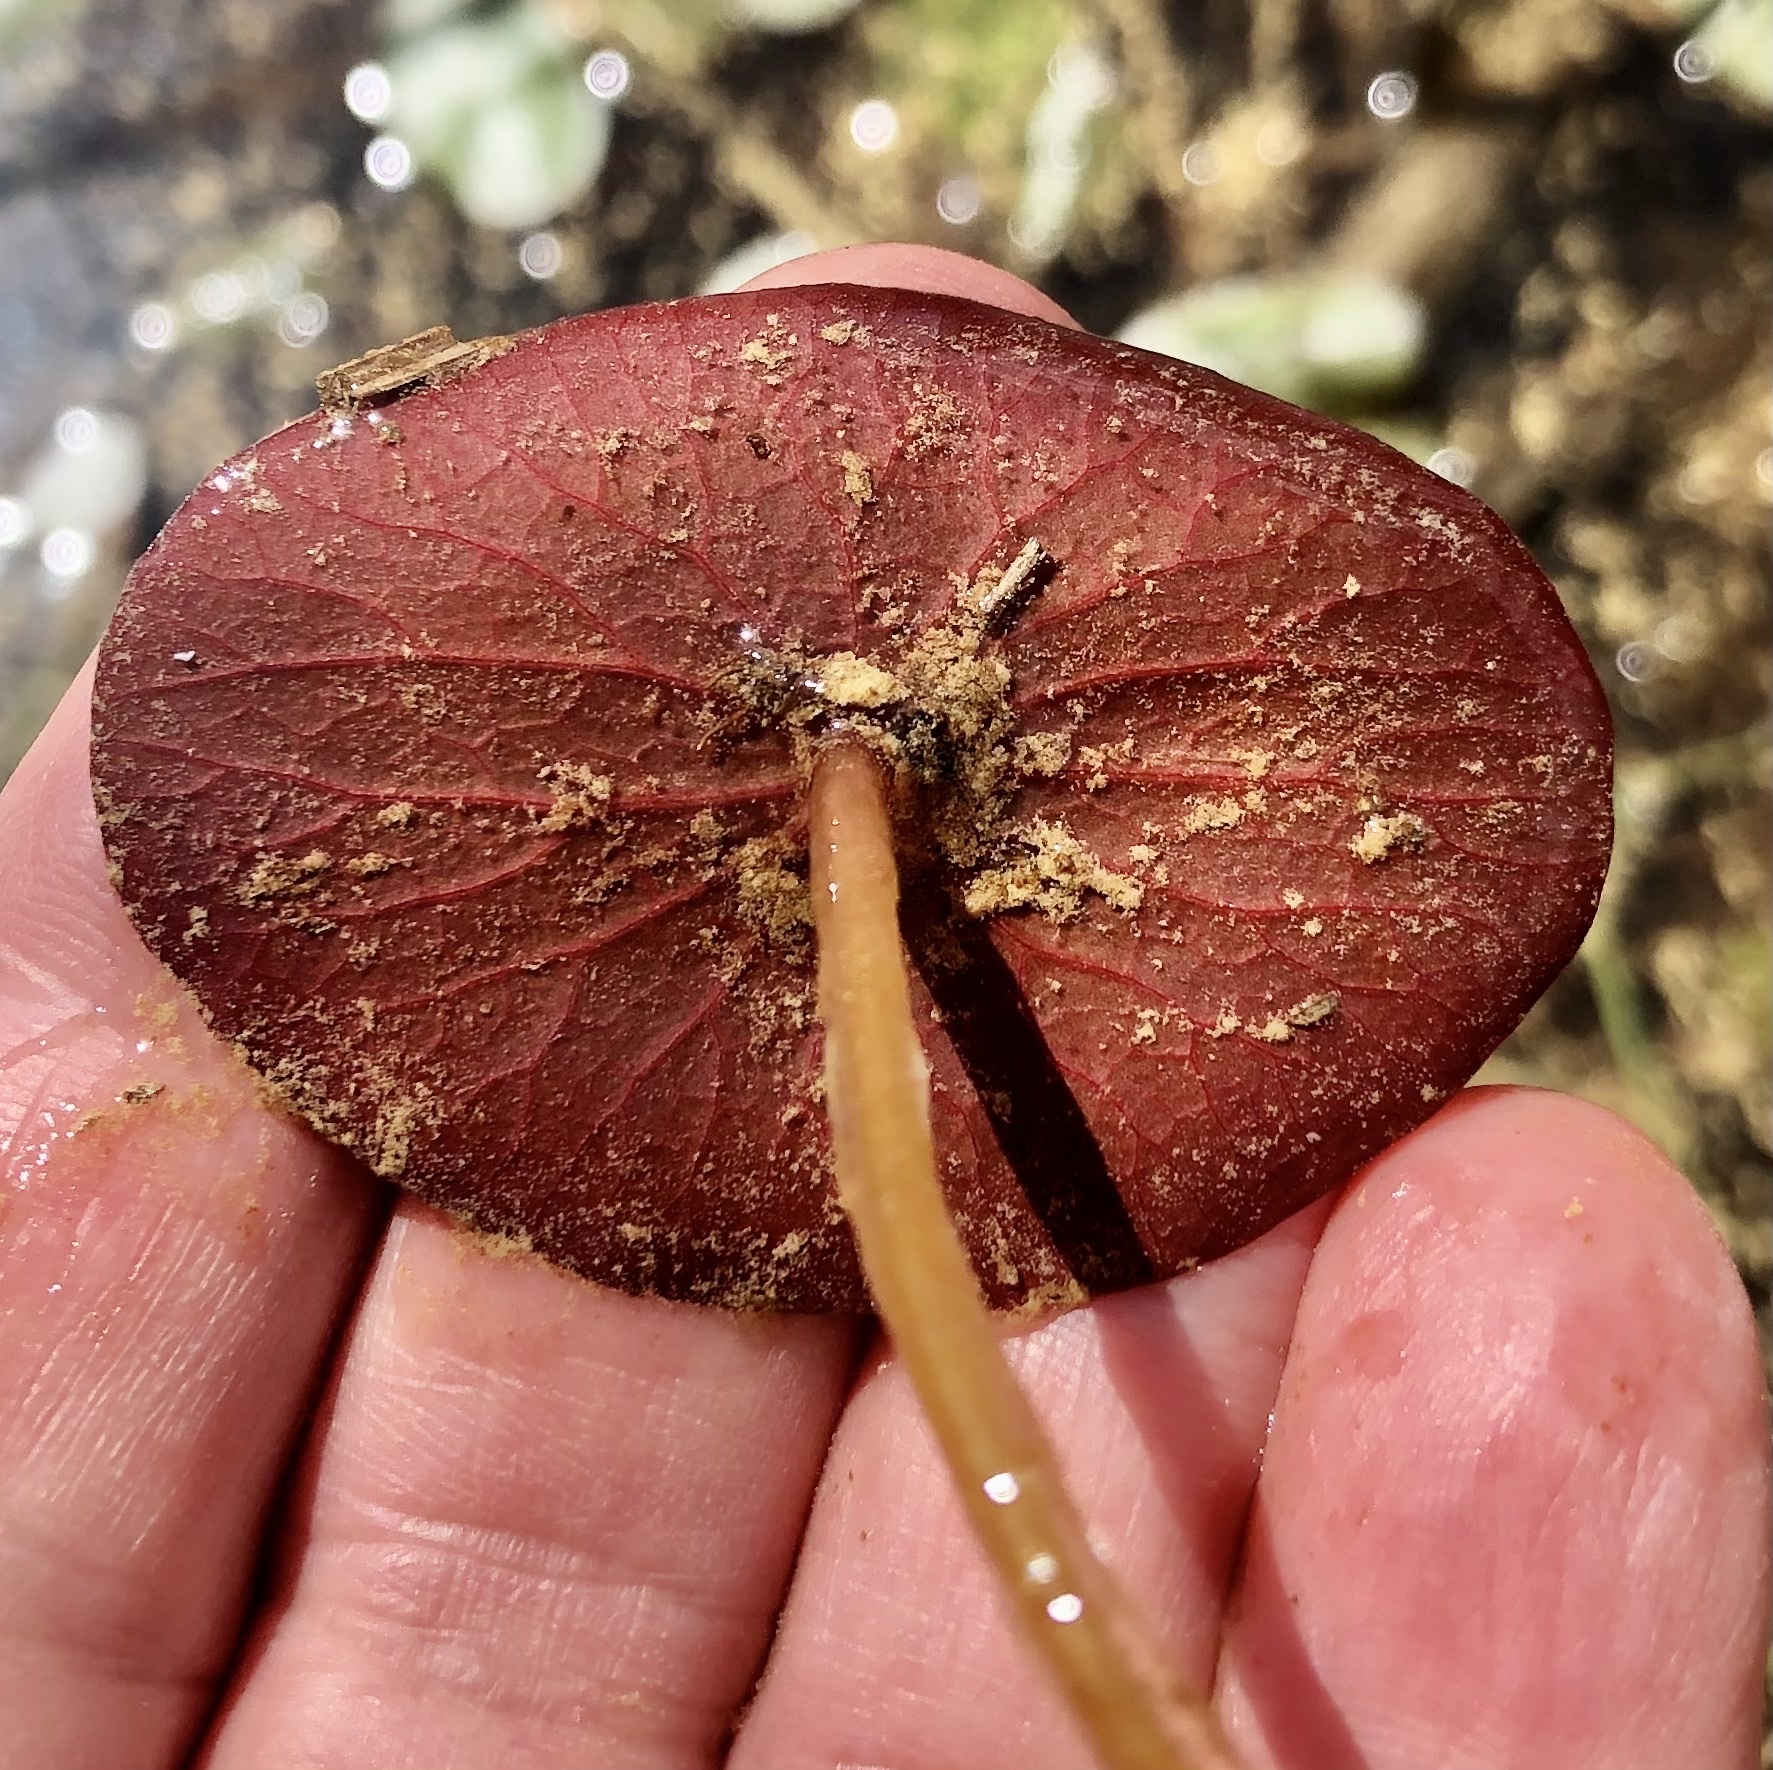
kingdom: Plantae
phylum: Tracheophyta
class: Magnoliopsida
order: Nymphaeales
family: Cabombaceae
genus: Brasenia
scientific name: Brasenia schreberi
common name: Water-shield
